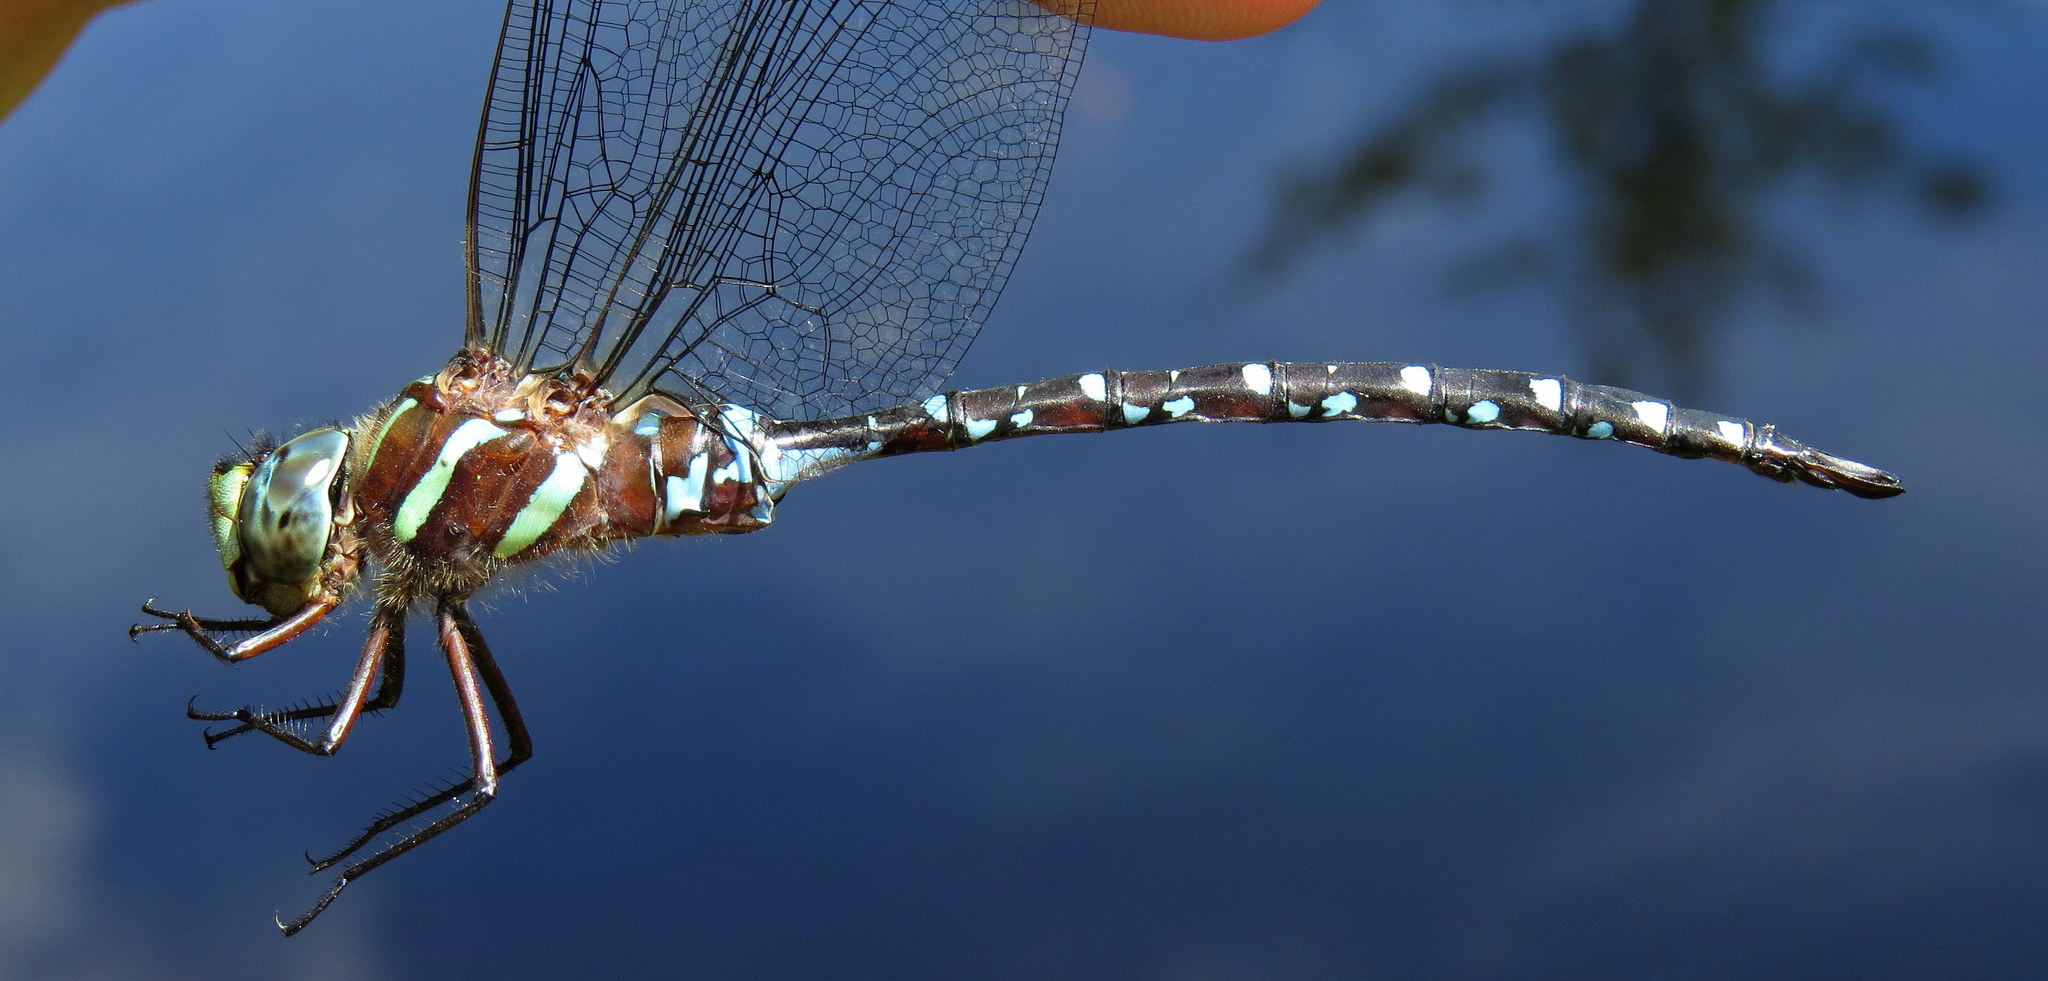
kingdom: Animalia
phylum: Arthropoda
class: Insecta
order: Odonata
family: Aeshnidae
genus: Aeshna
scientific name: Aeshna tuberculifera
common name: Aeschne à tubercules
